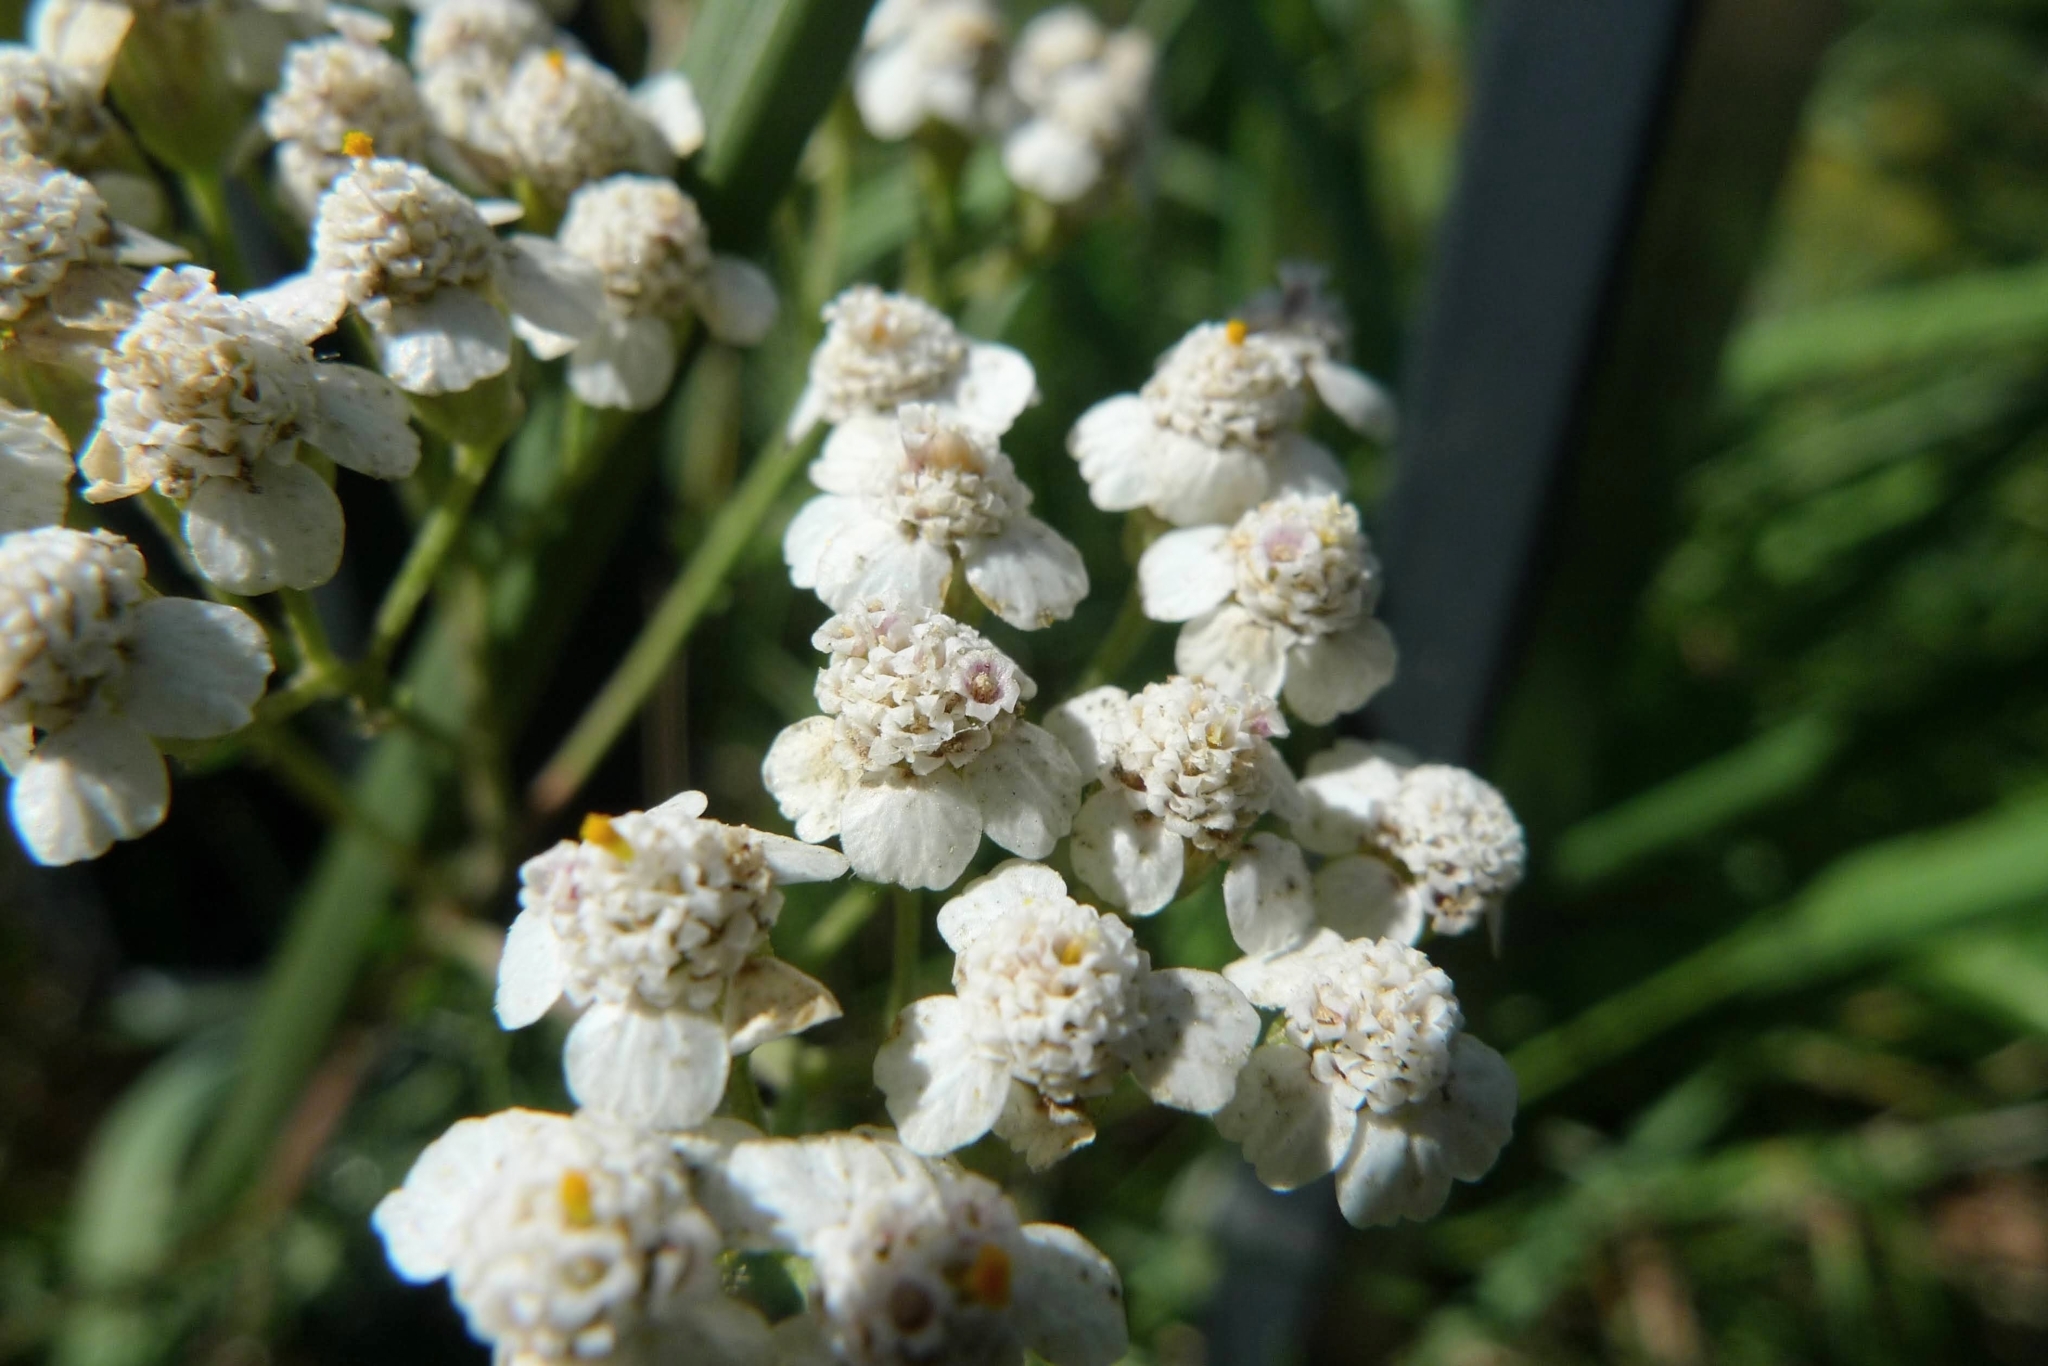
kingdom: Plantae
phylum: Tracheophyta
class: Magnoliopsida
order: Asterales
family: Asteraceae
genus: Achillea
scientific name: Achillea millefolium
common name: Yarrow
